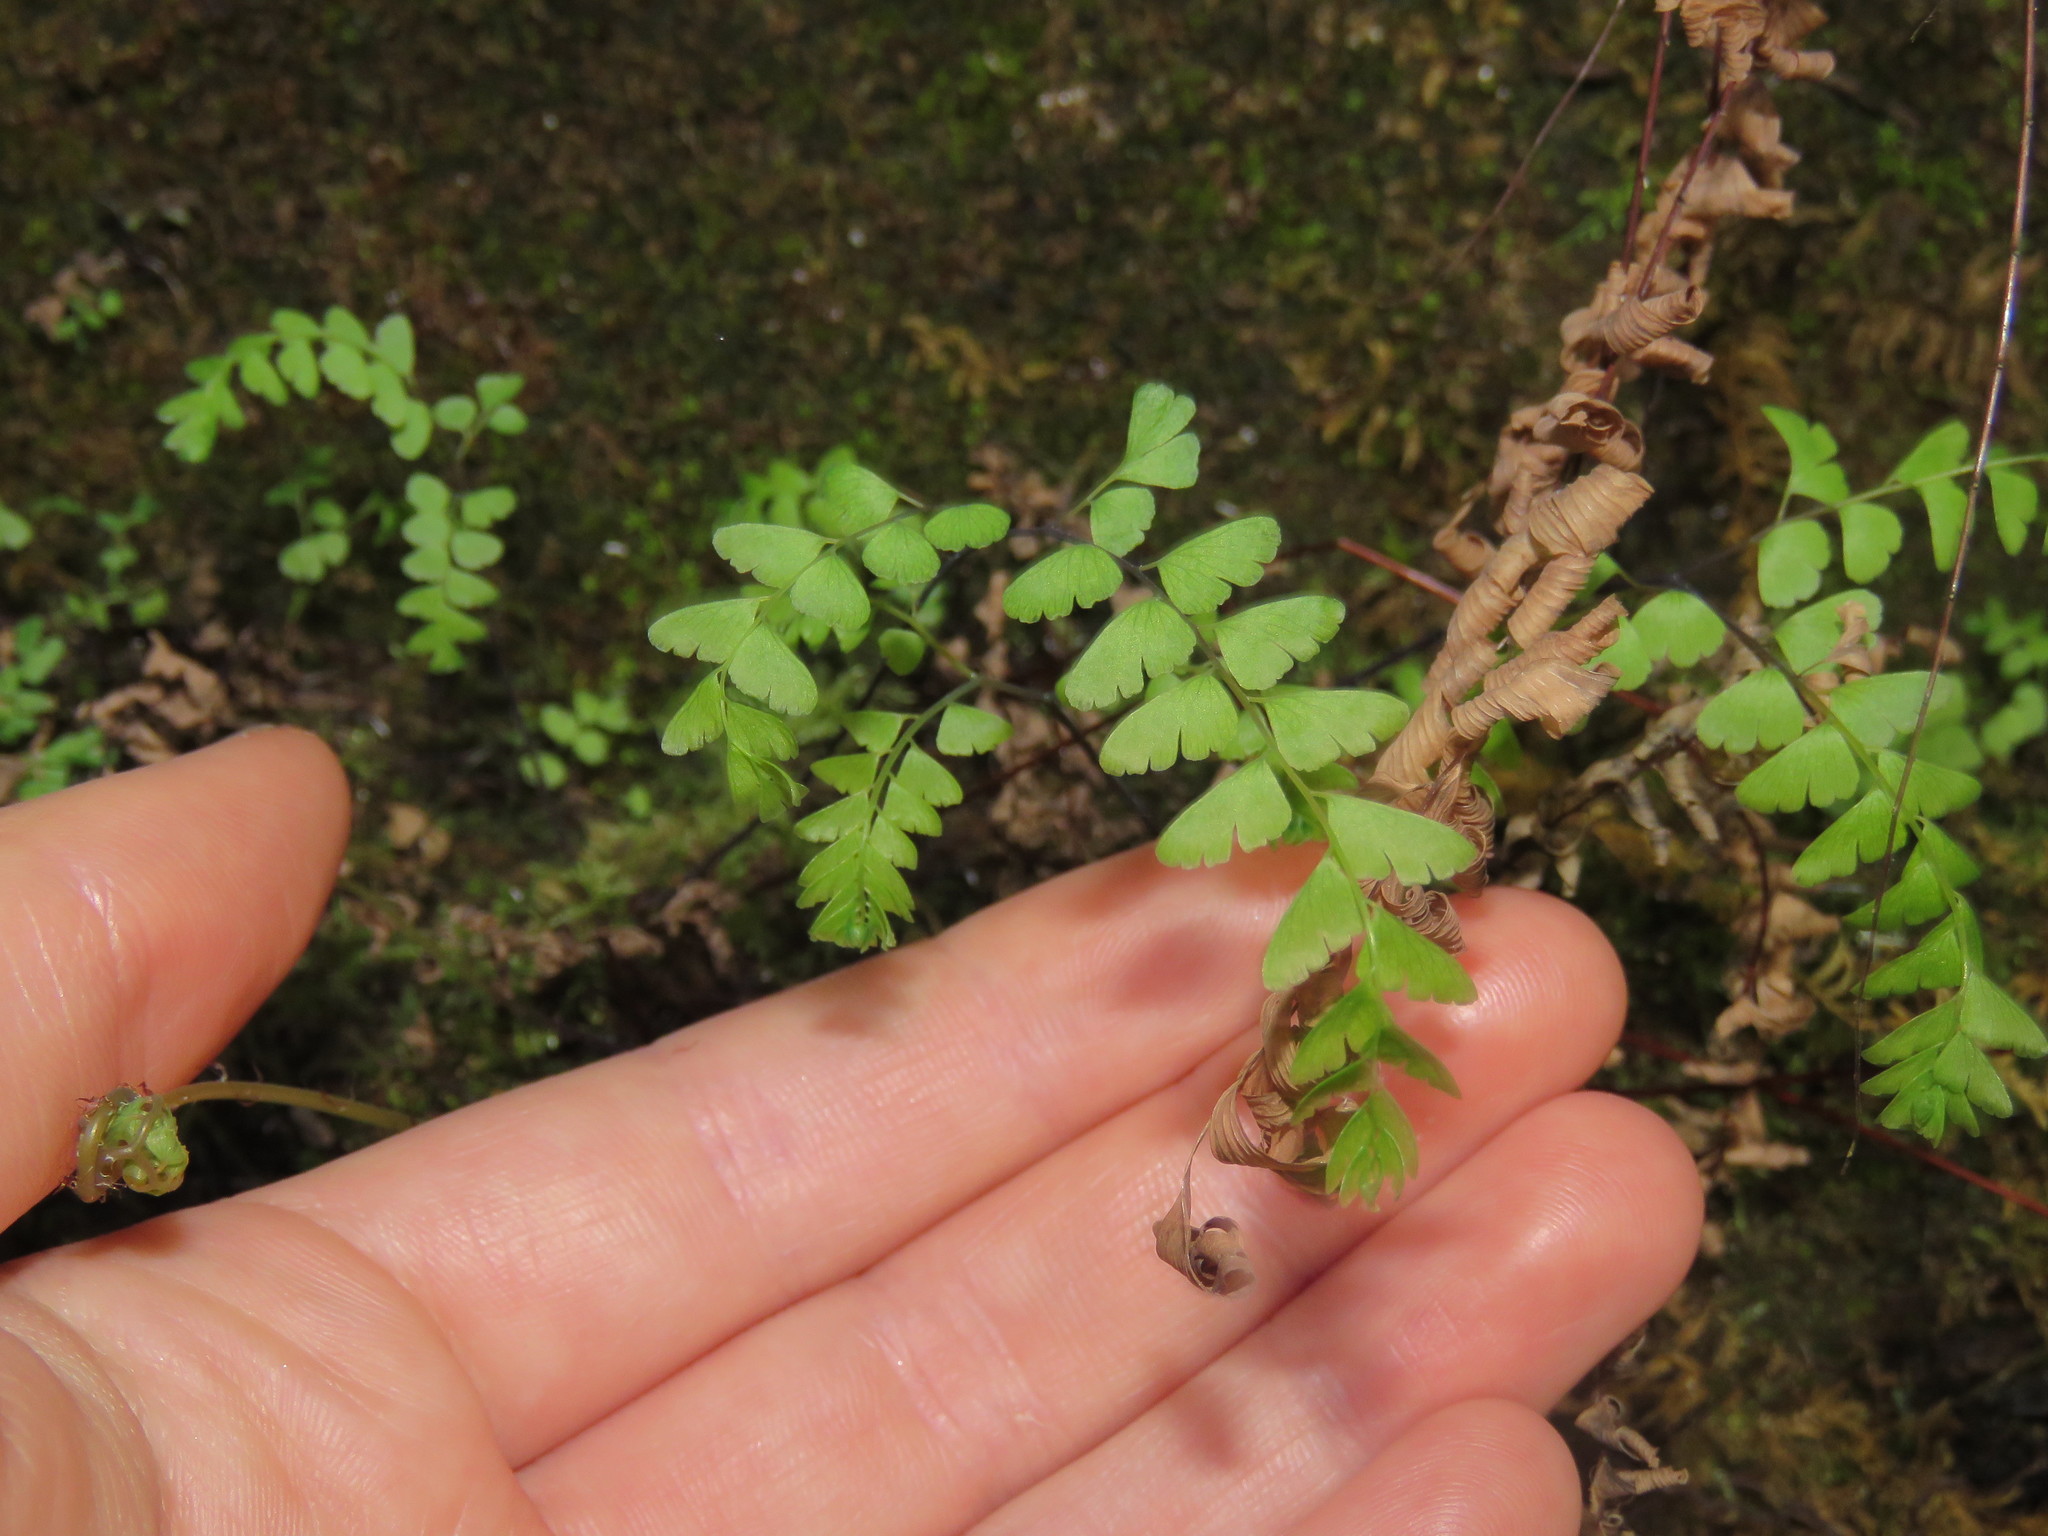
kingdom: Plantae
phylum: Tracheophyta
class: Polypodiopsida
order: Polypodiales
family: Pteridaceae
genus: Adiantum
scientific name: Adiantum aleuticum
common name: Aleutian maidenhair fern
